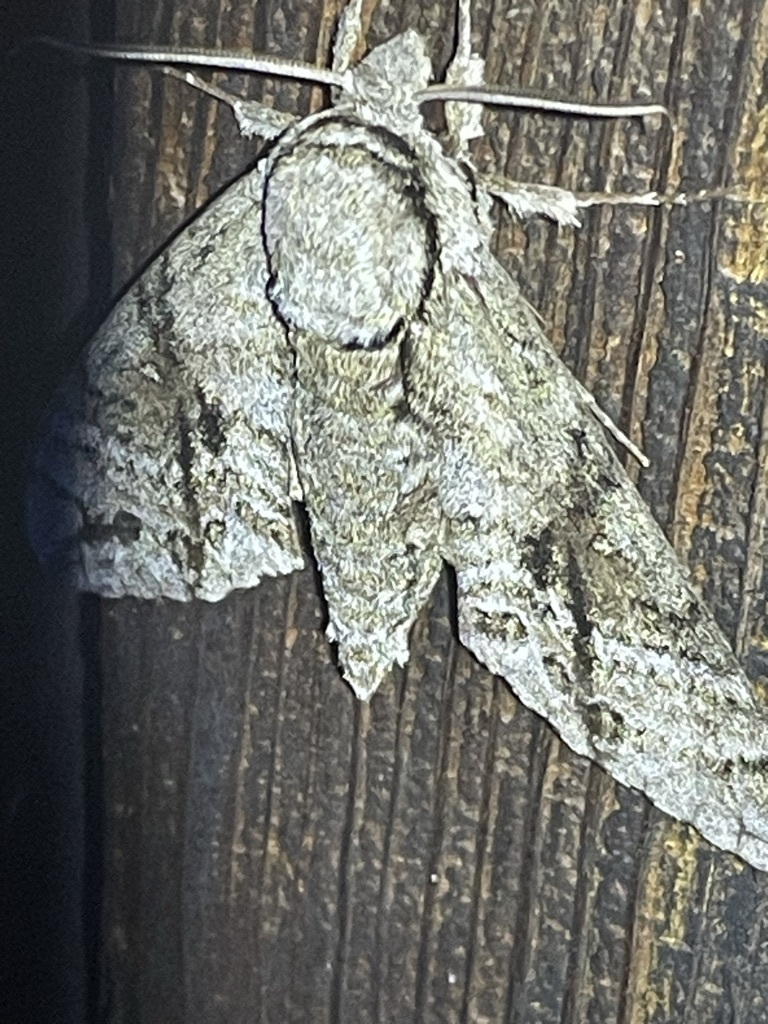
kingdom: Animalia
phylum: Arthropoda
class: Insecta
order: Lepidoptera
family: Sphingidae
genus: Manduca
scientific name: Manduca jasminearum
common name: Ash sphinx
